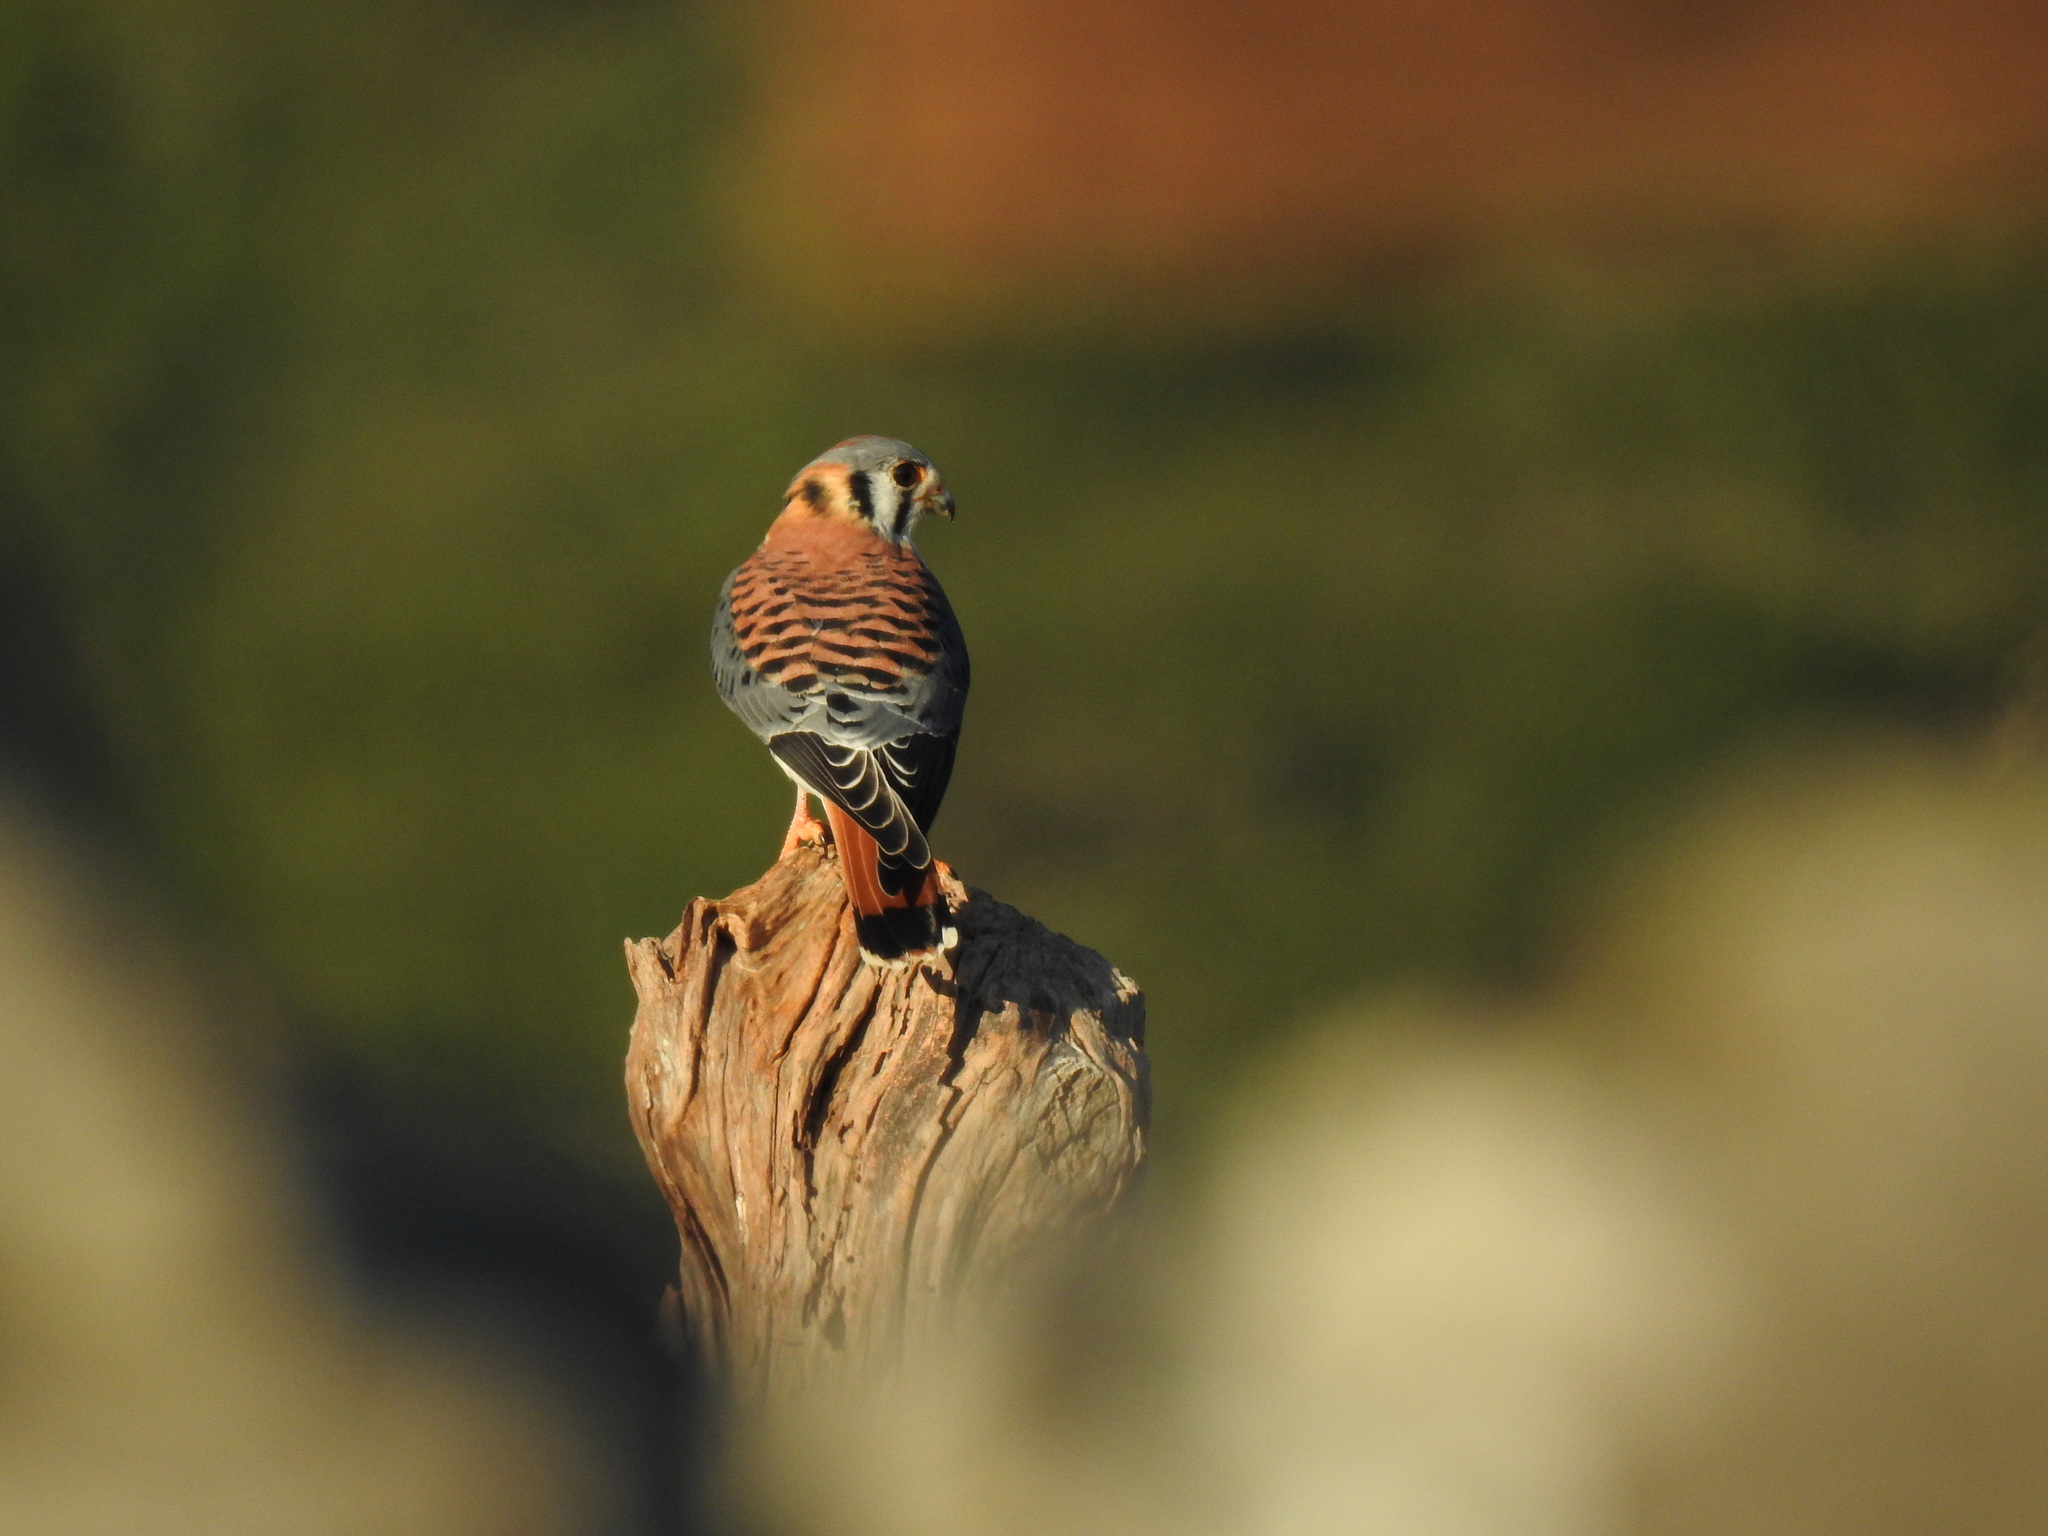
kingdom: Animalia
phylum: Chordata
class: Aves
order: Falconiformes
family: Falconidae
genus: Falco
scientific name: Falco sparverius
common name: American kestrel
